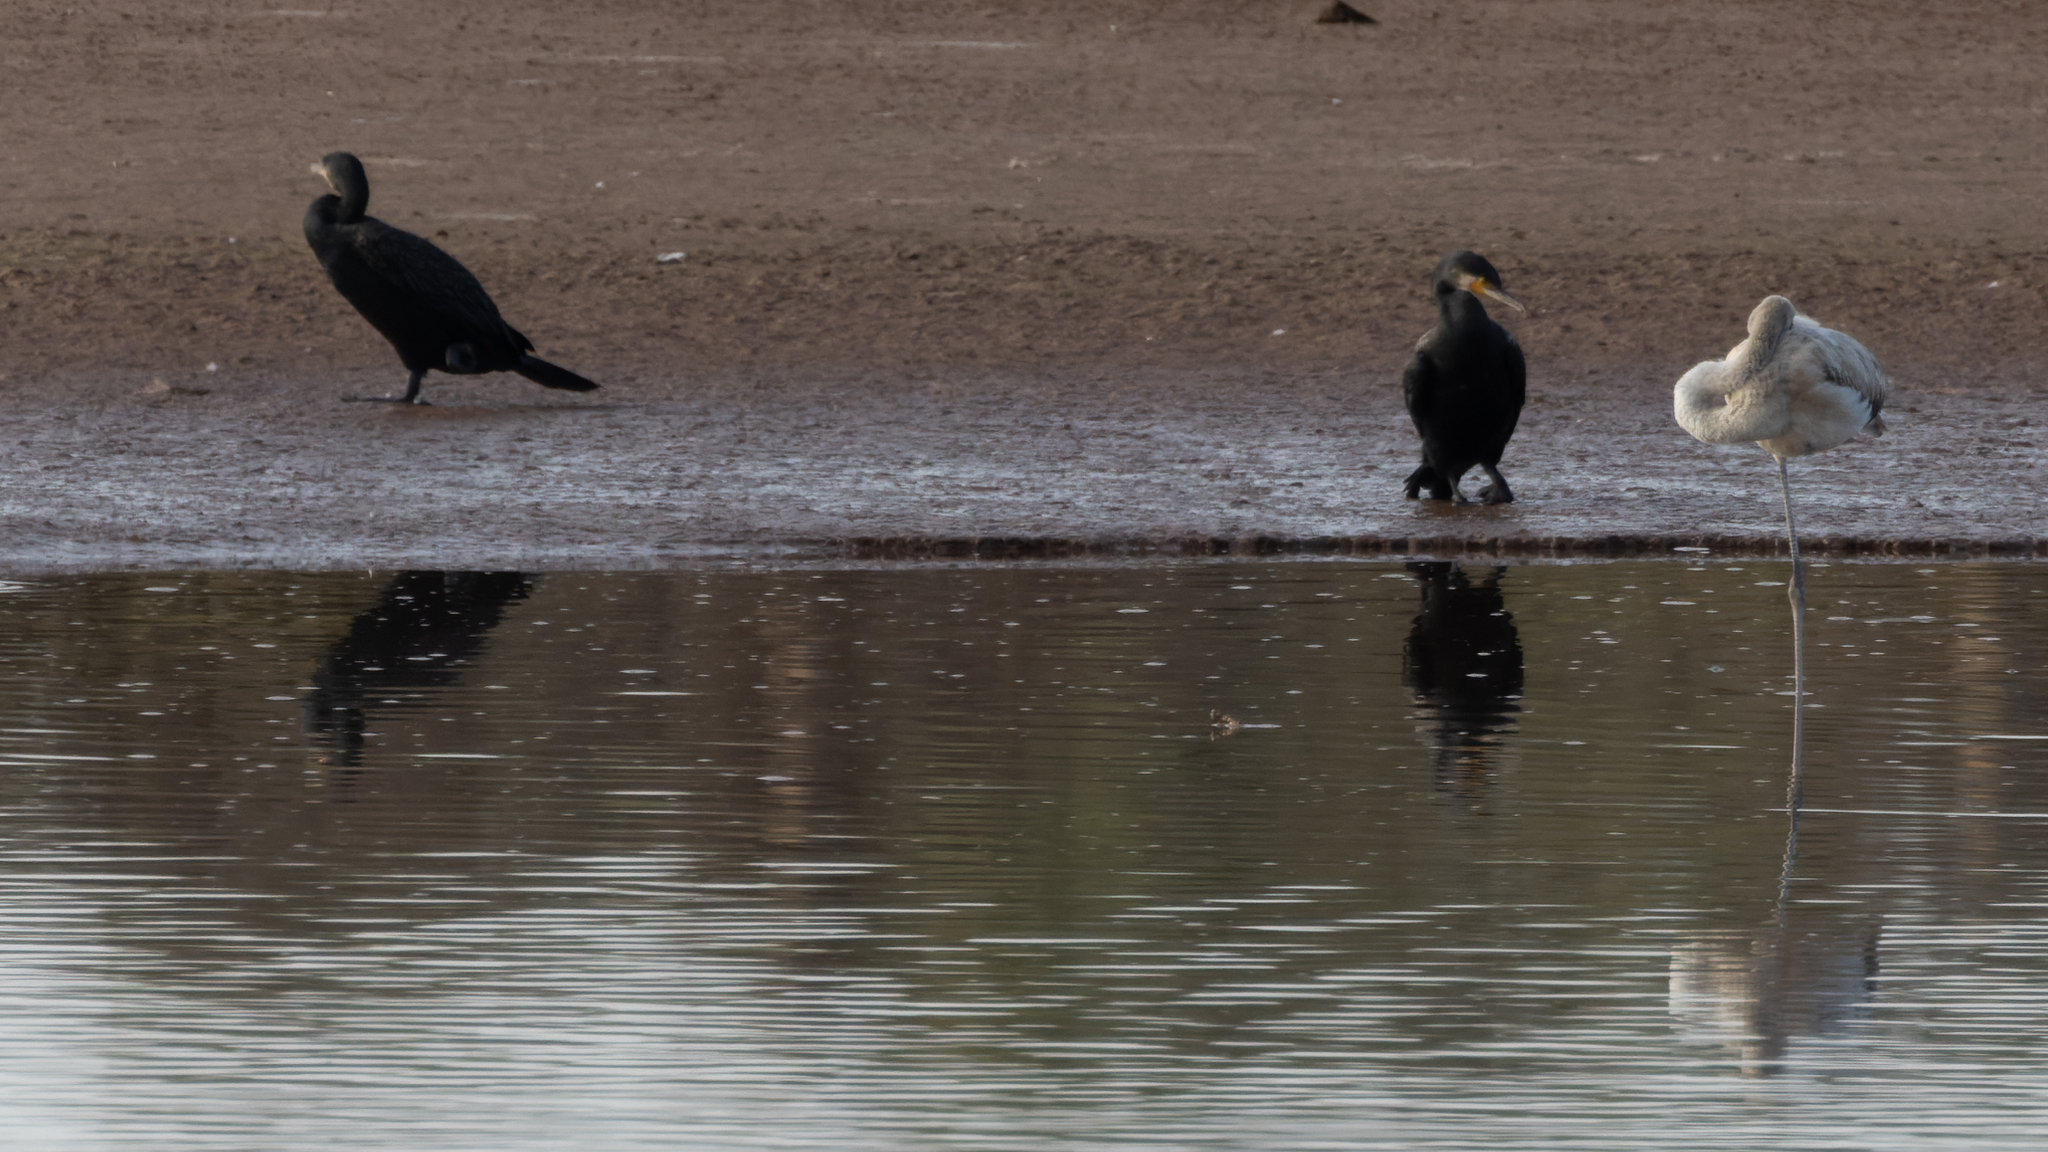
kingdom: Animalia
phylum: Chordata
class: Aves
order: Suliformes
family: Phalacrocoracidae
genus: Phalacrocorax
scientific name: Phalacrocorax carbo
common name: Great cormorant
